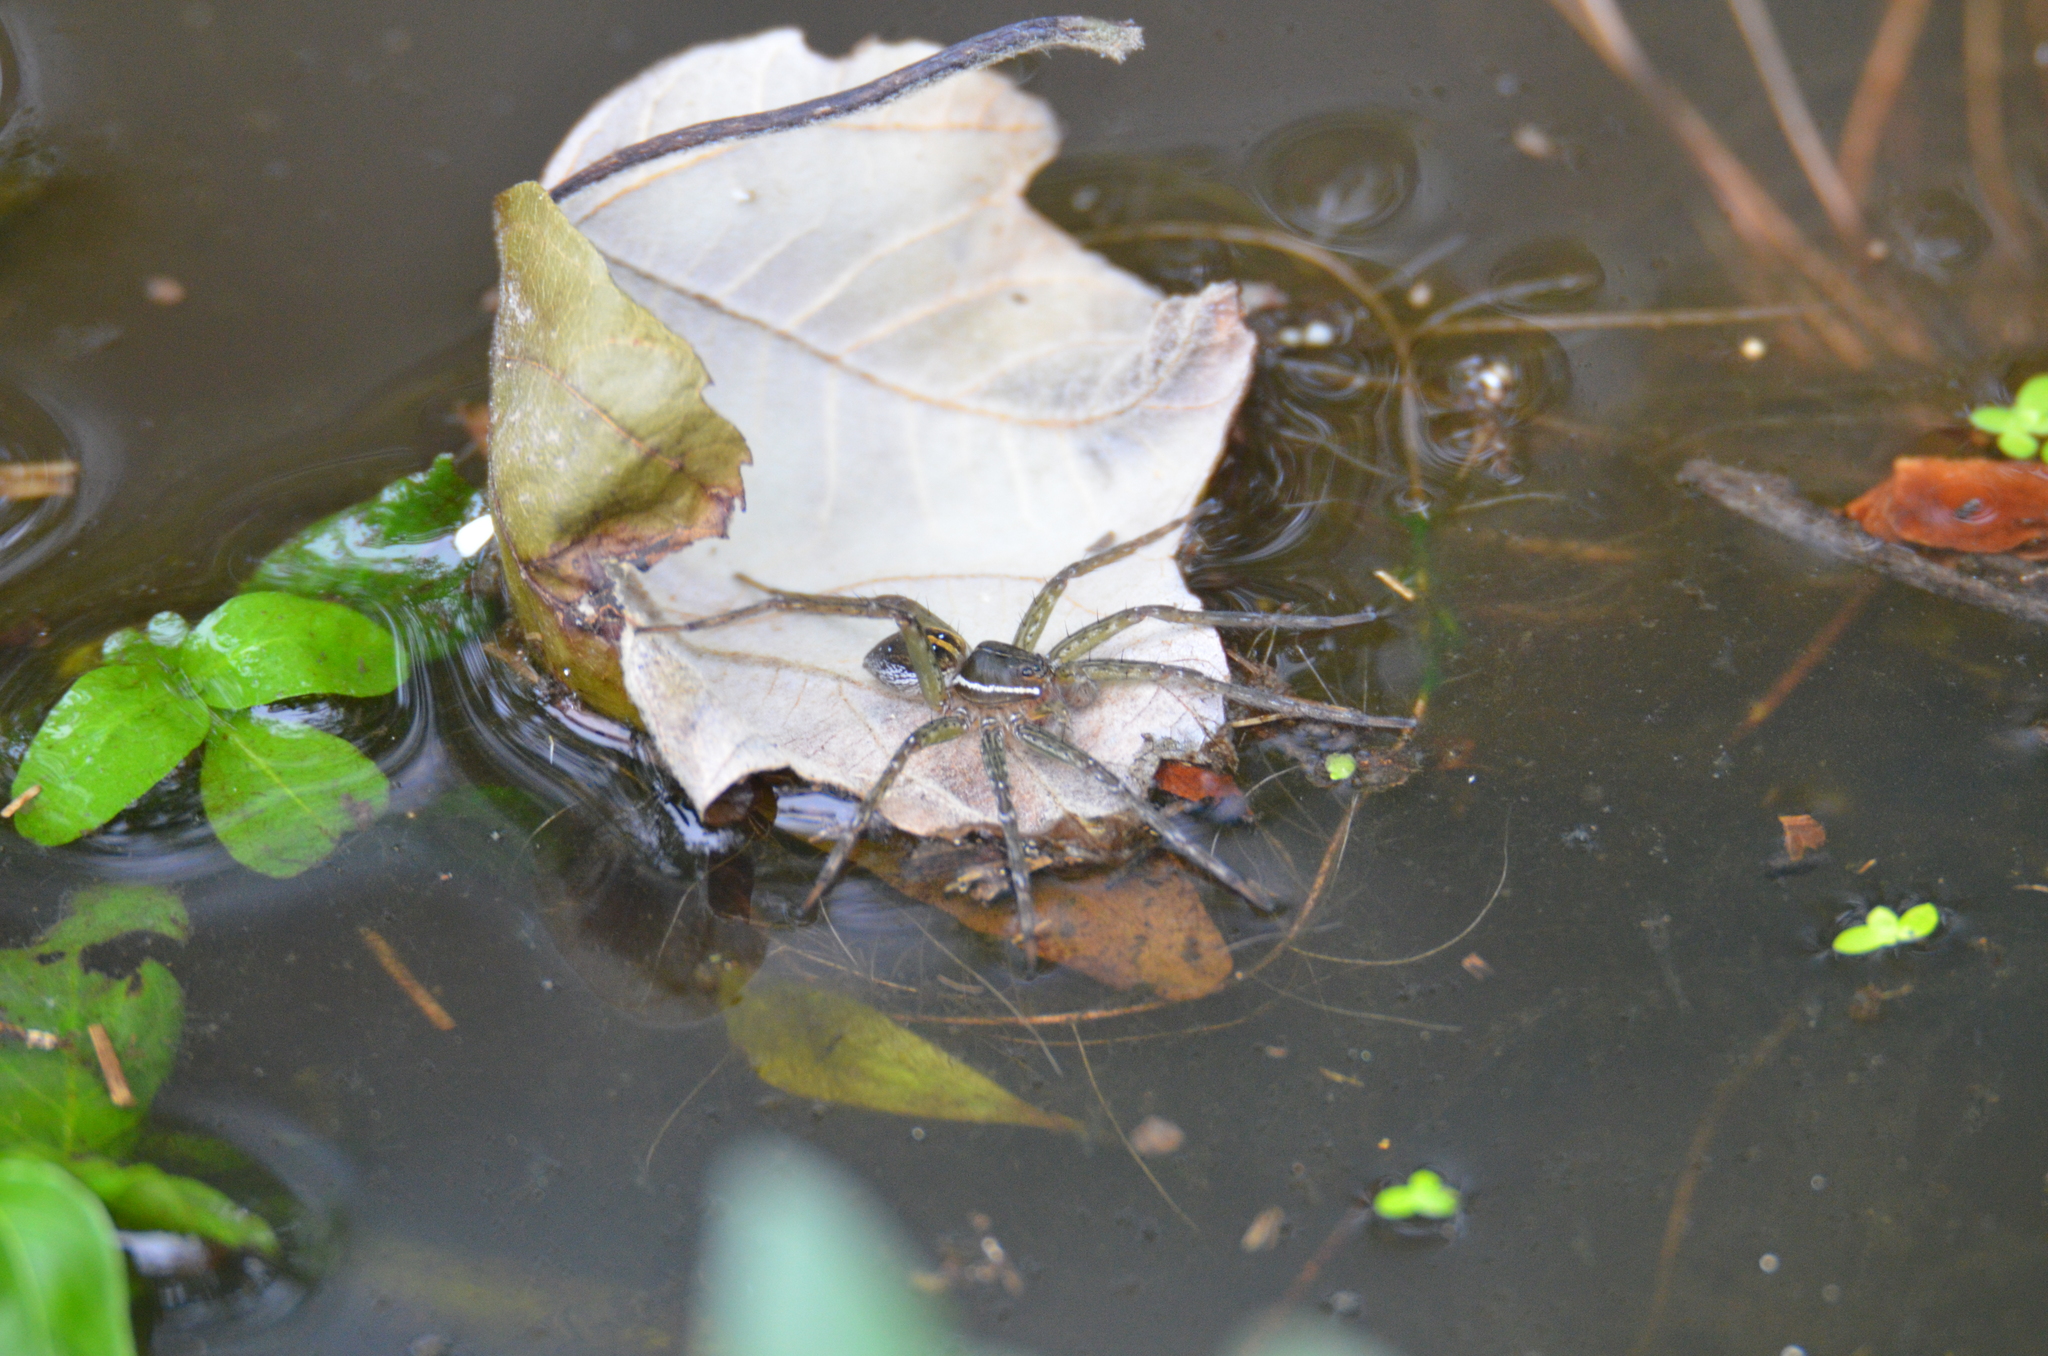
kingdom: Animalia
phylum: Arthropoda
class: Arachnida
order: Araneae
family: Pisauridae
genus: Dolomedes
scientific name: Dolomedes triton
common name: Six-spotted fishing spider
